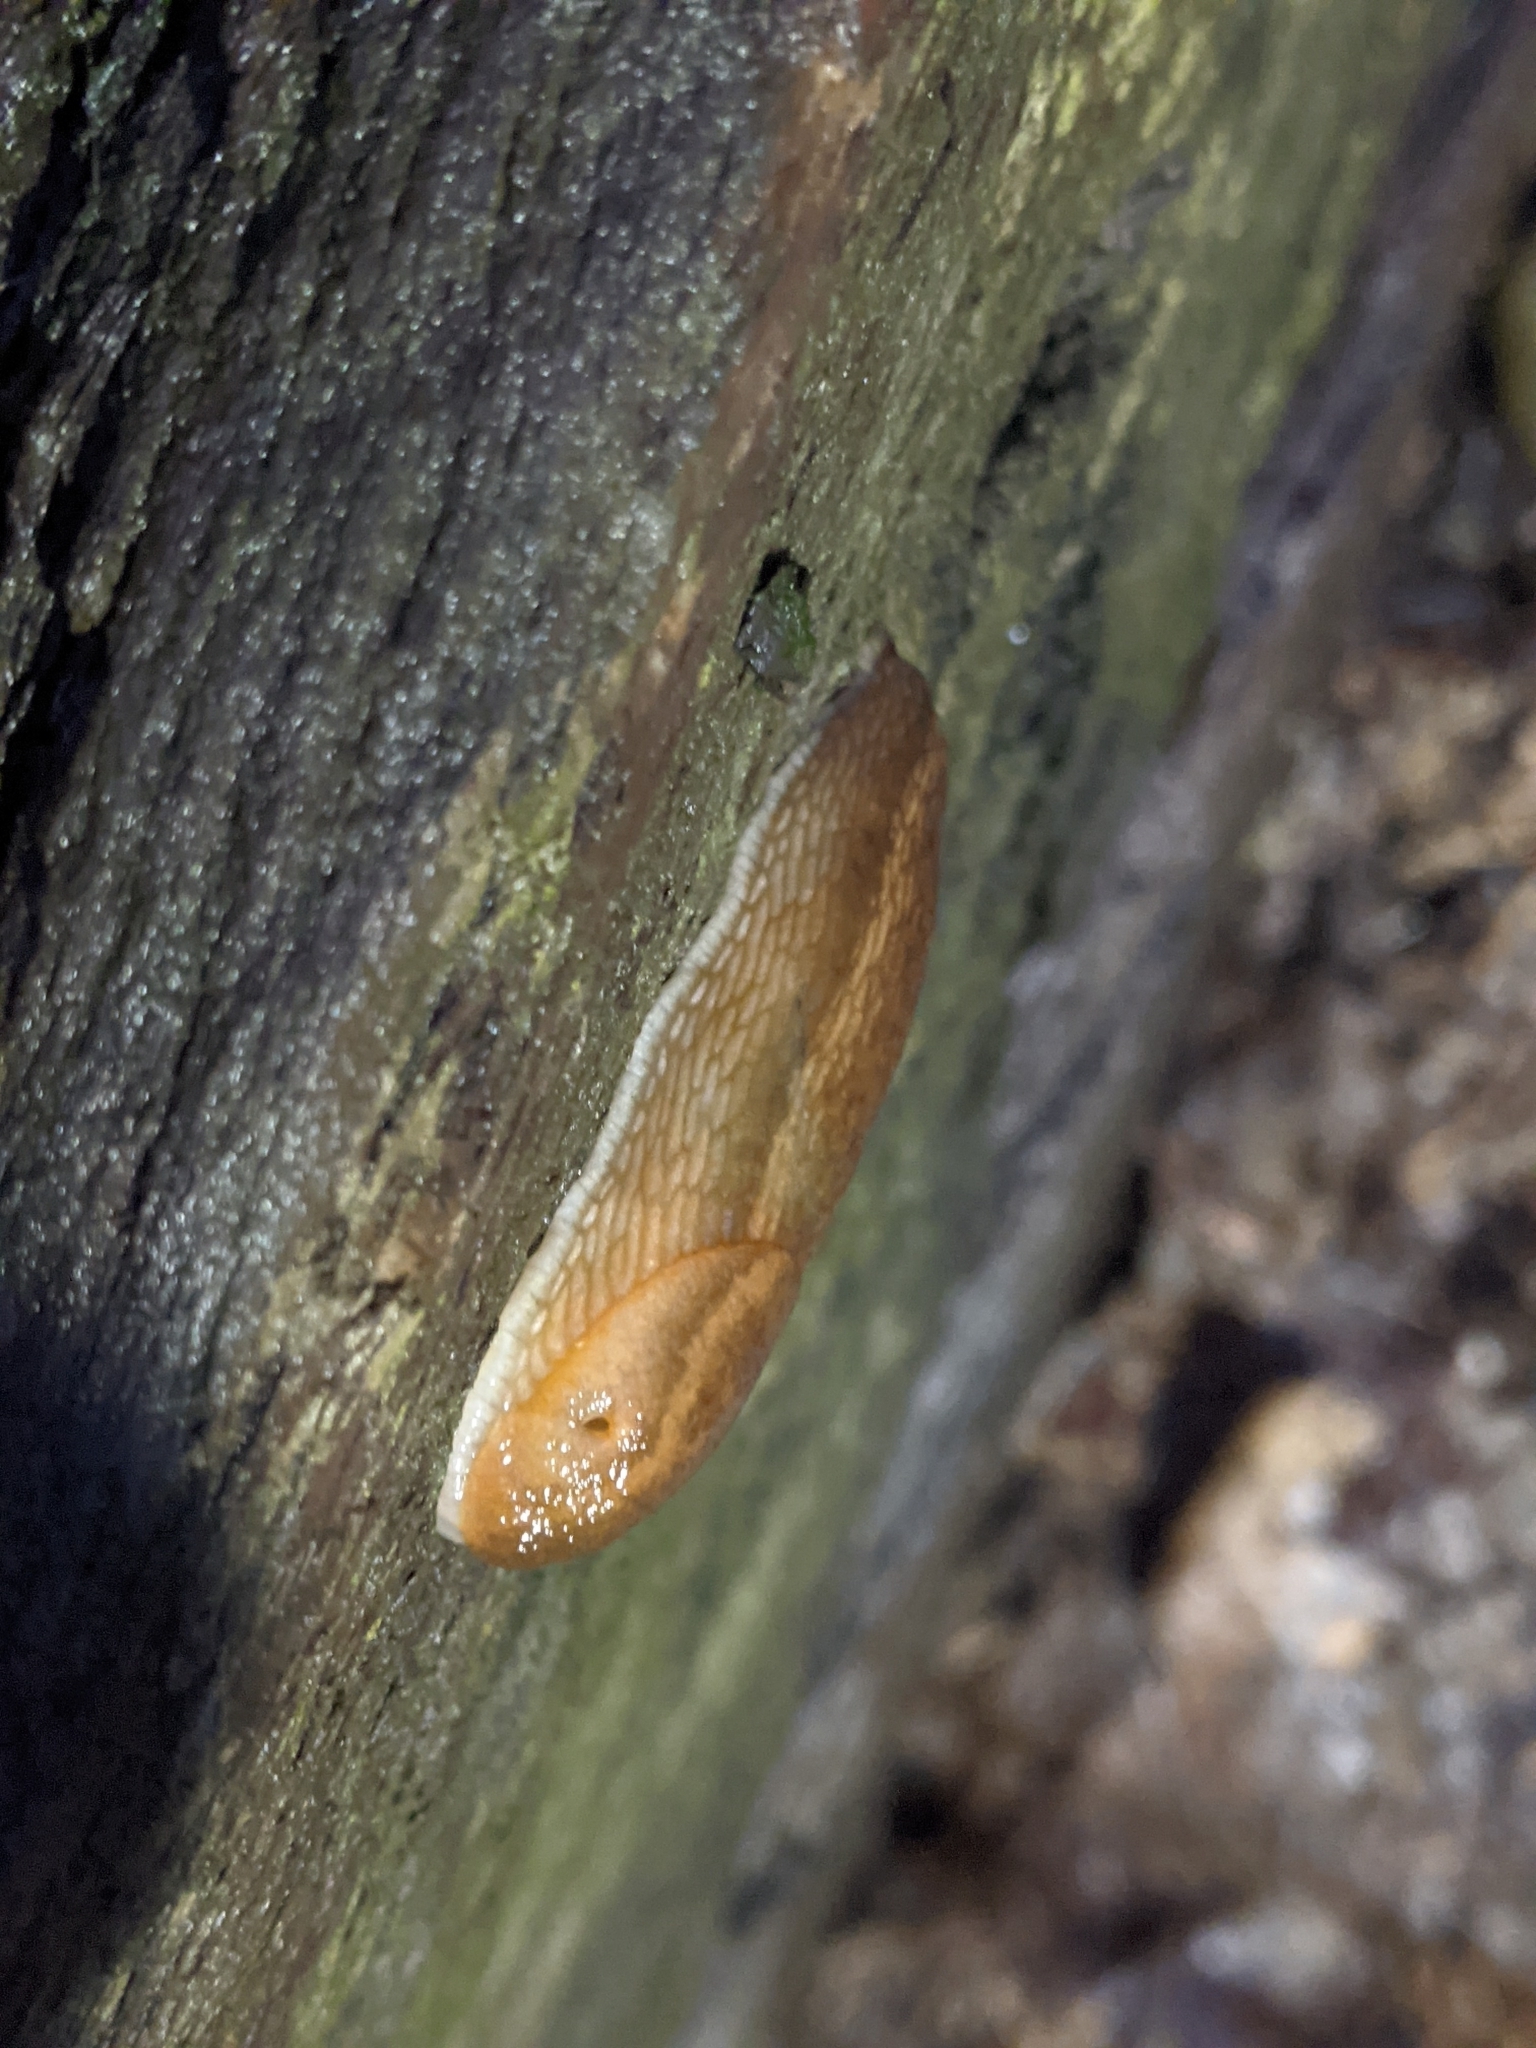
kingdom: Animalia
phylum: Mollusca
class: Gastropoda
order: Stylommatophora
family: Arionidae
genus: Arion
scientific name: Arion subfuscus
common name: Dusky arion
